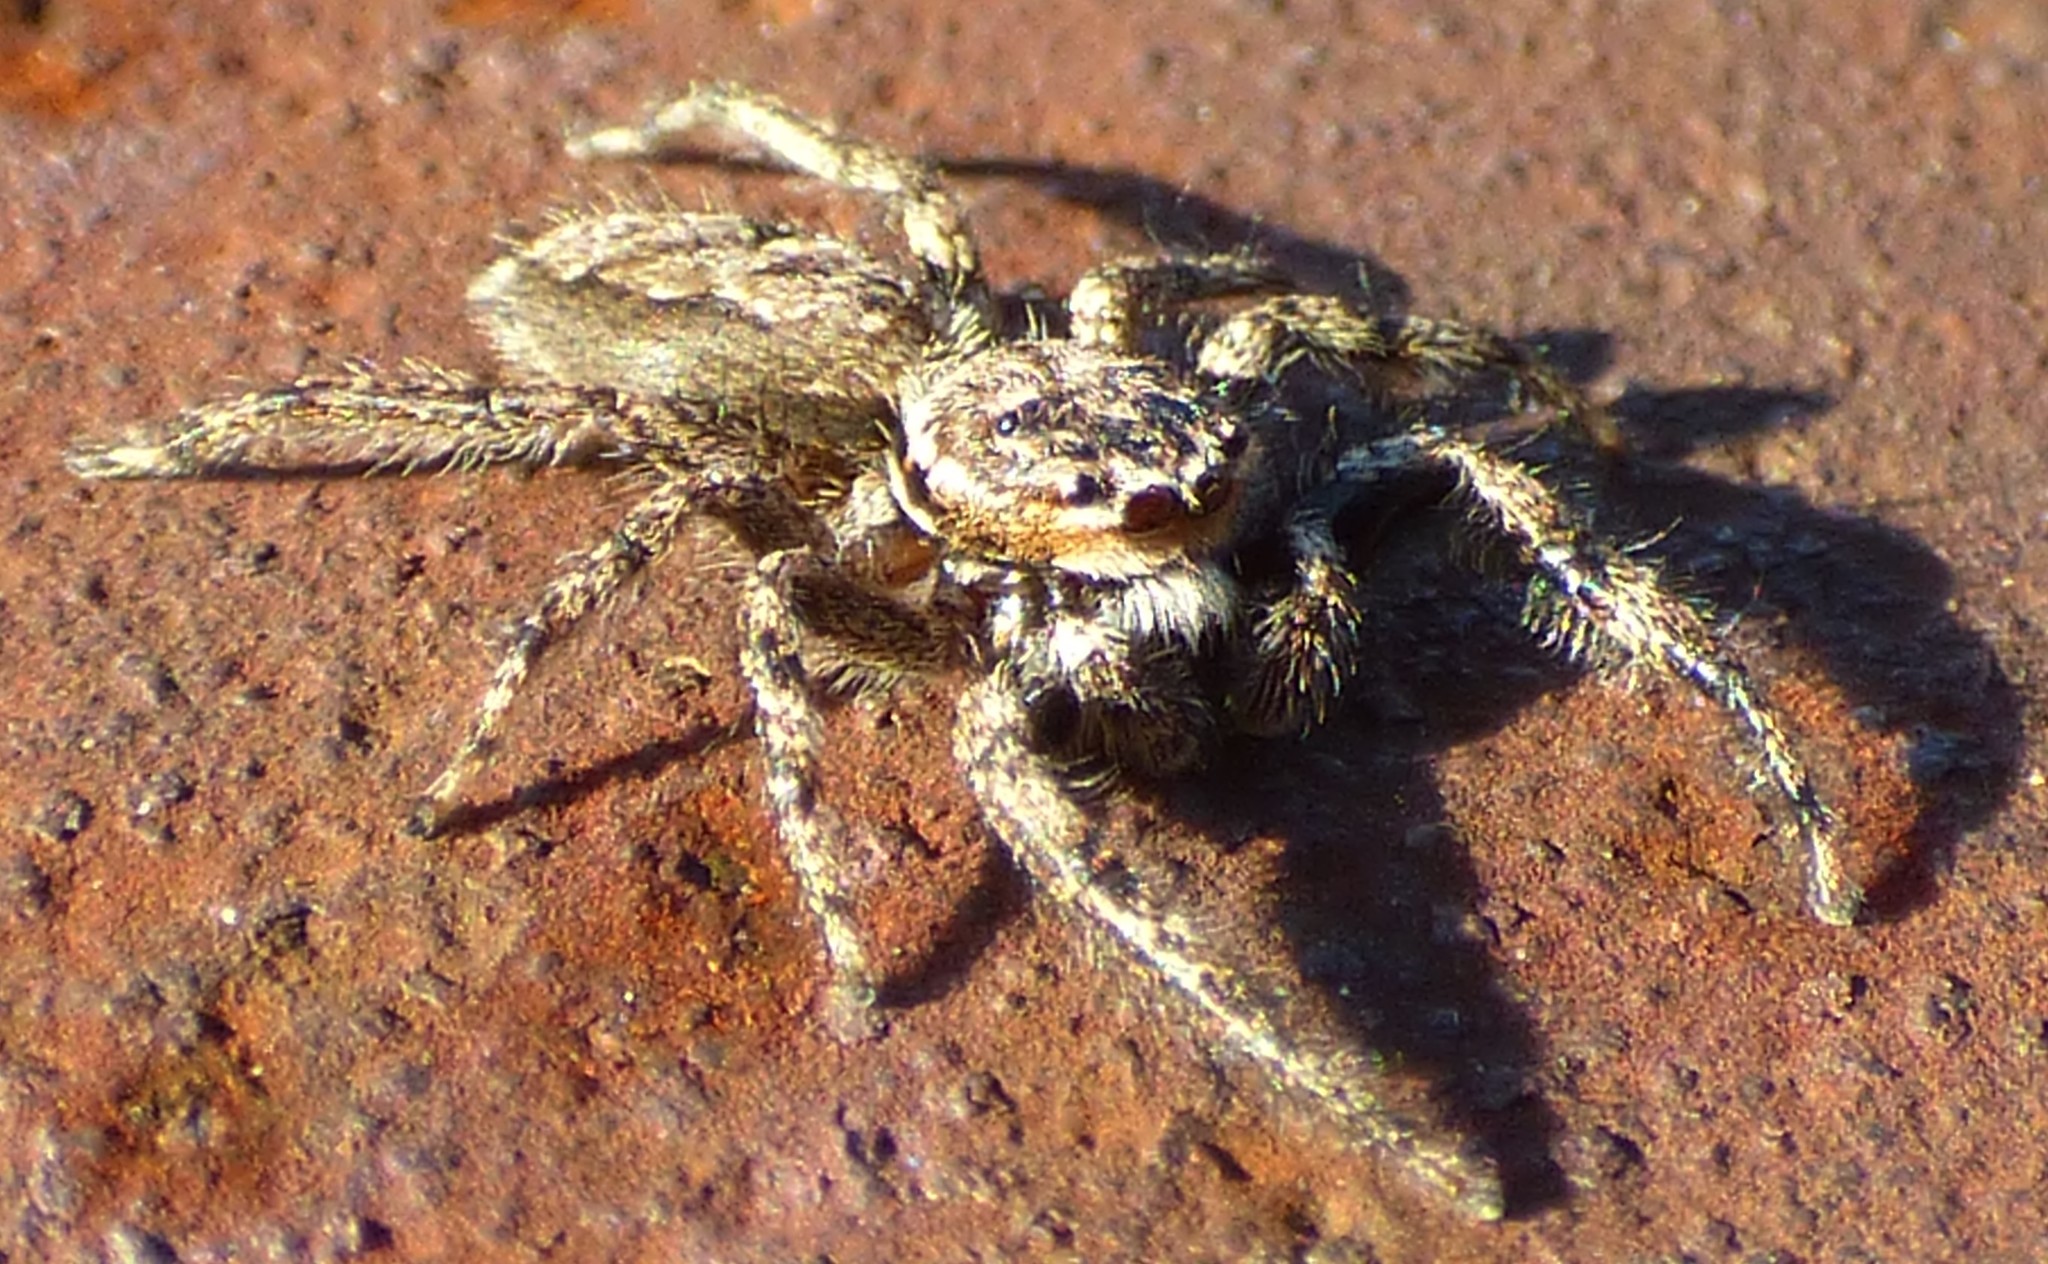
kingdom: Animalia
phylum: Arthropoda
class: Arachnida
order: Araneae
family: Salticidae
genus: Platycryptus
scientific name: Platycryptus undatus
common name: Tan jumping spider
